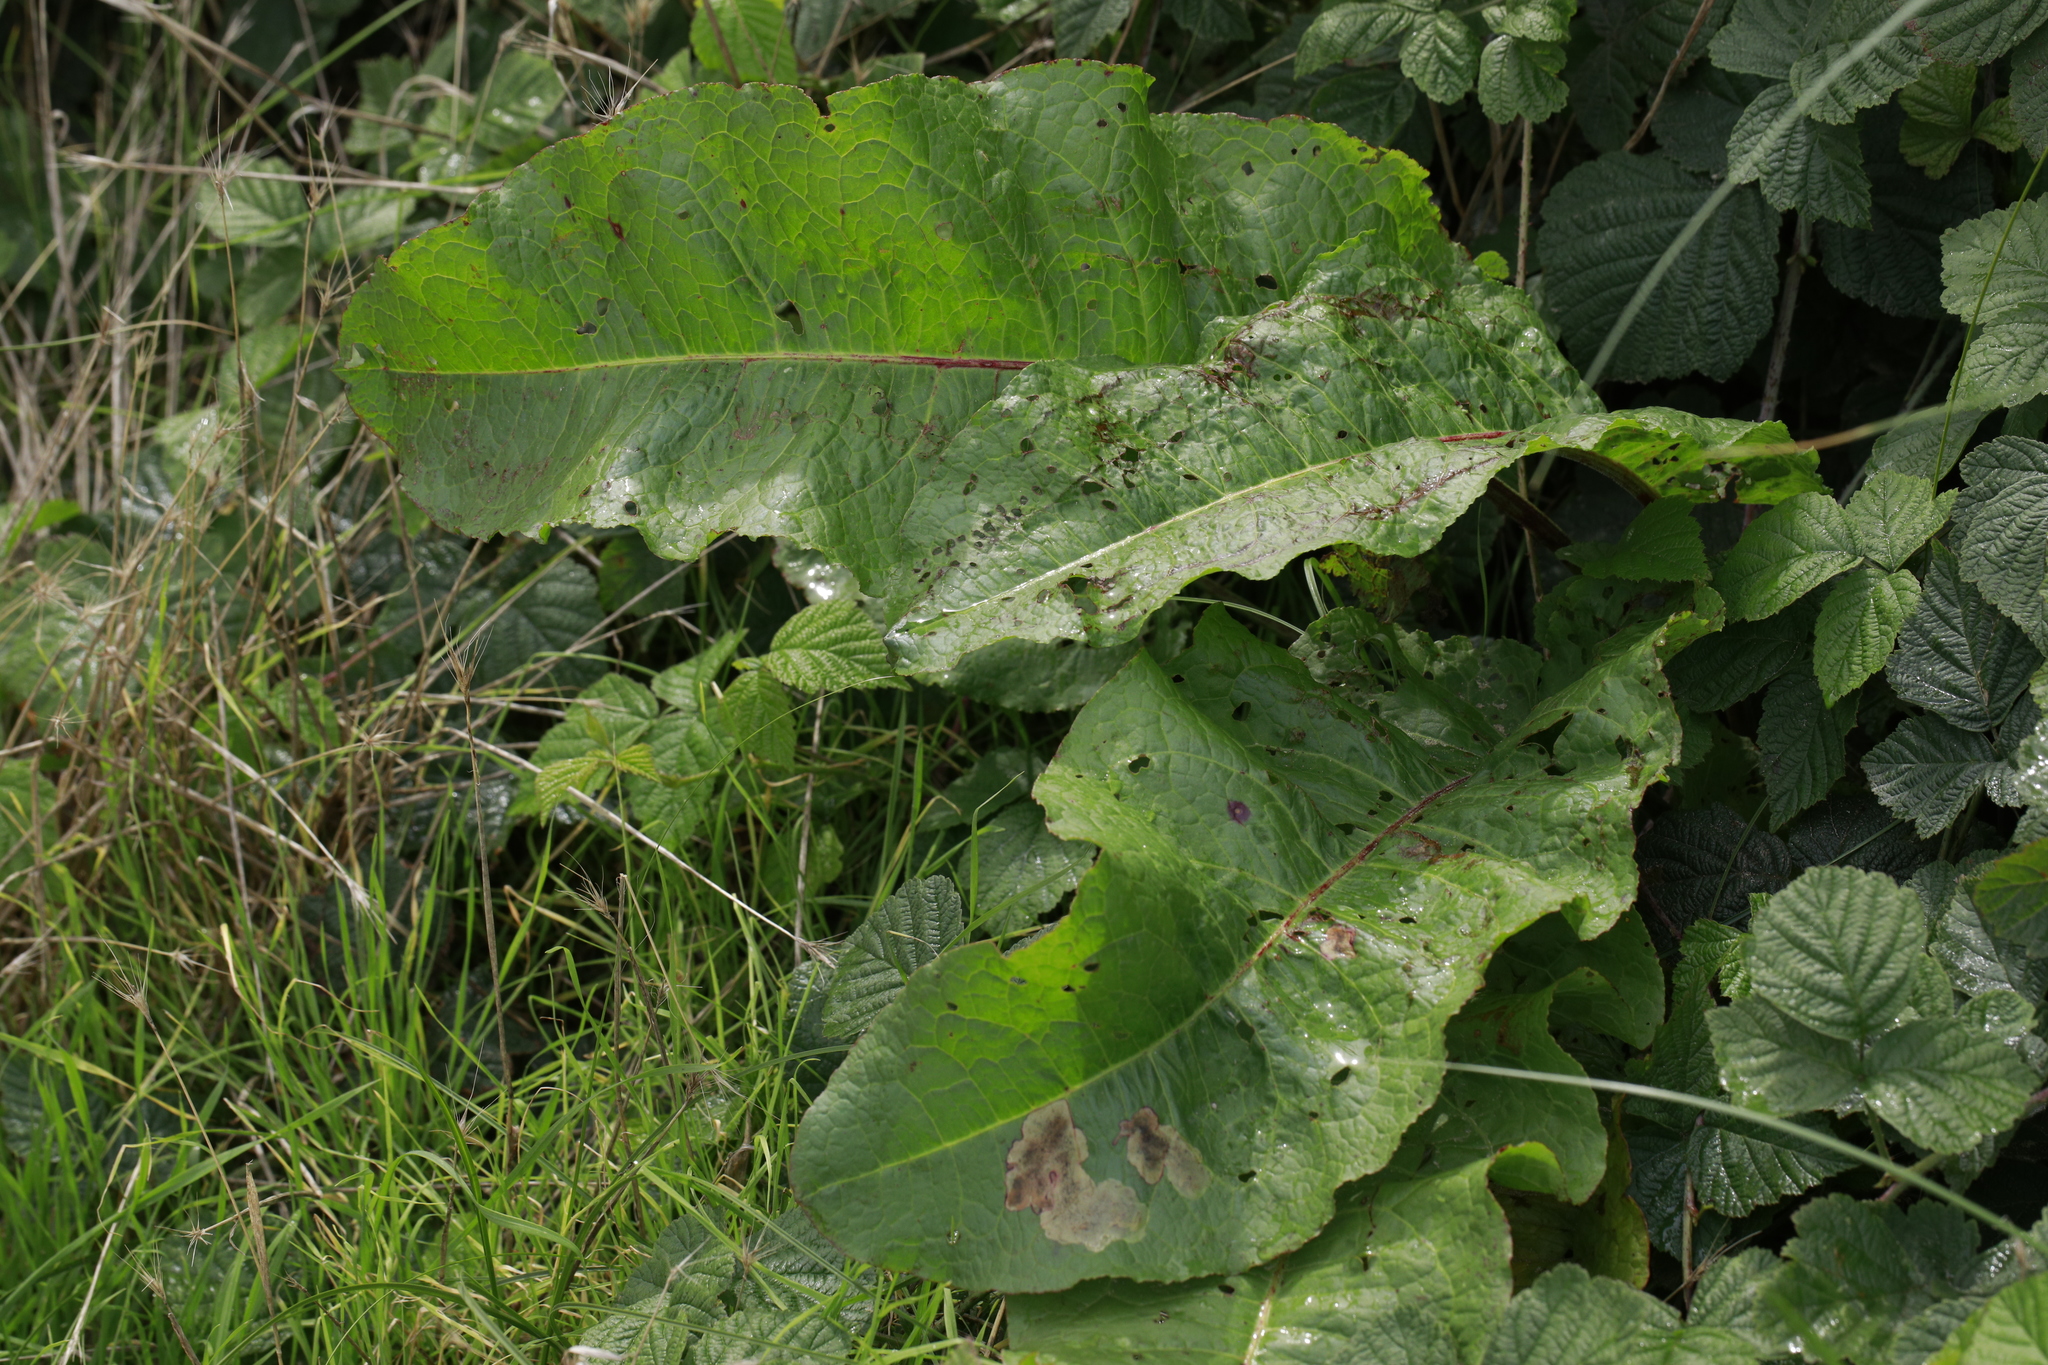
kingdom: Plantae
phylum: Tracheophyta
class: Magnoliopsida
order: Caryophyllales
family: Polygonaceae
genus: Rumex
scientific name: Rumex obtusifolius
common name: Bitter dock
